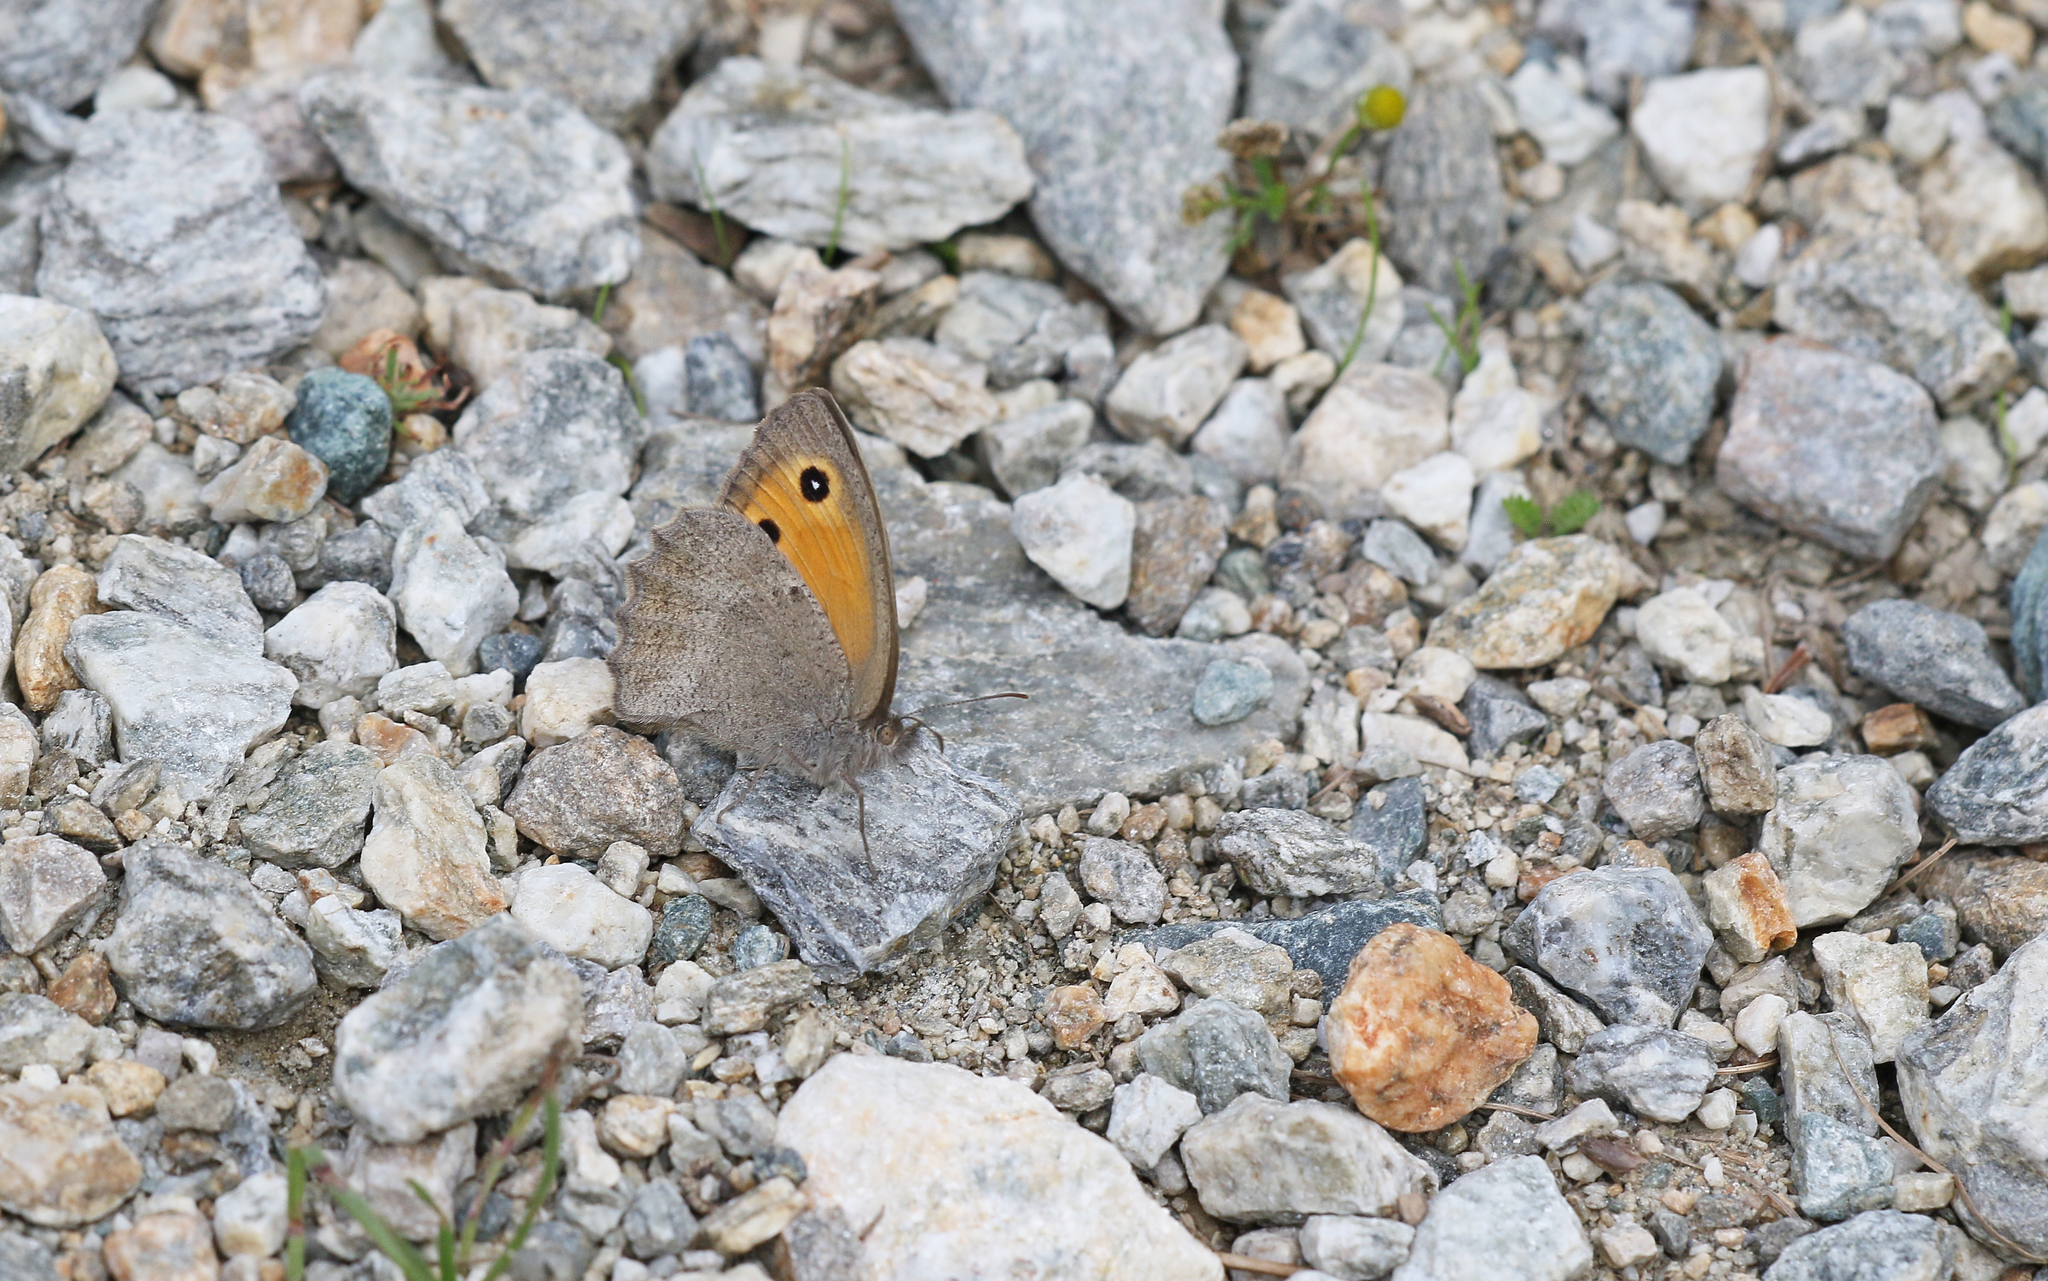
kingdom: Animalia
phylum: Arthropoda
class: Insecta
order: Lepidoptera
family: Nymphalidae
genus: Hyponephele
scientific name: Hyponephele lycaon
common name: Dusky meadow brown
